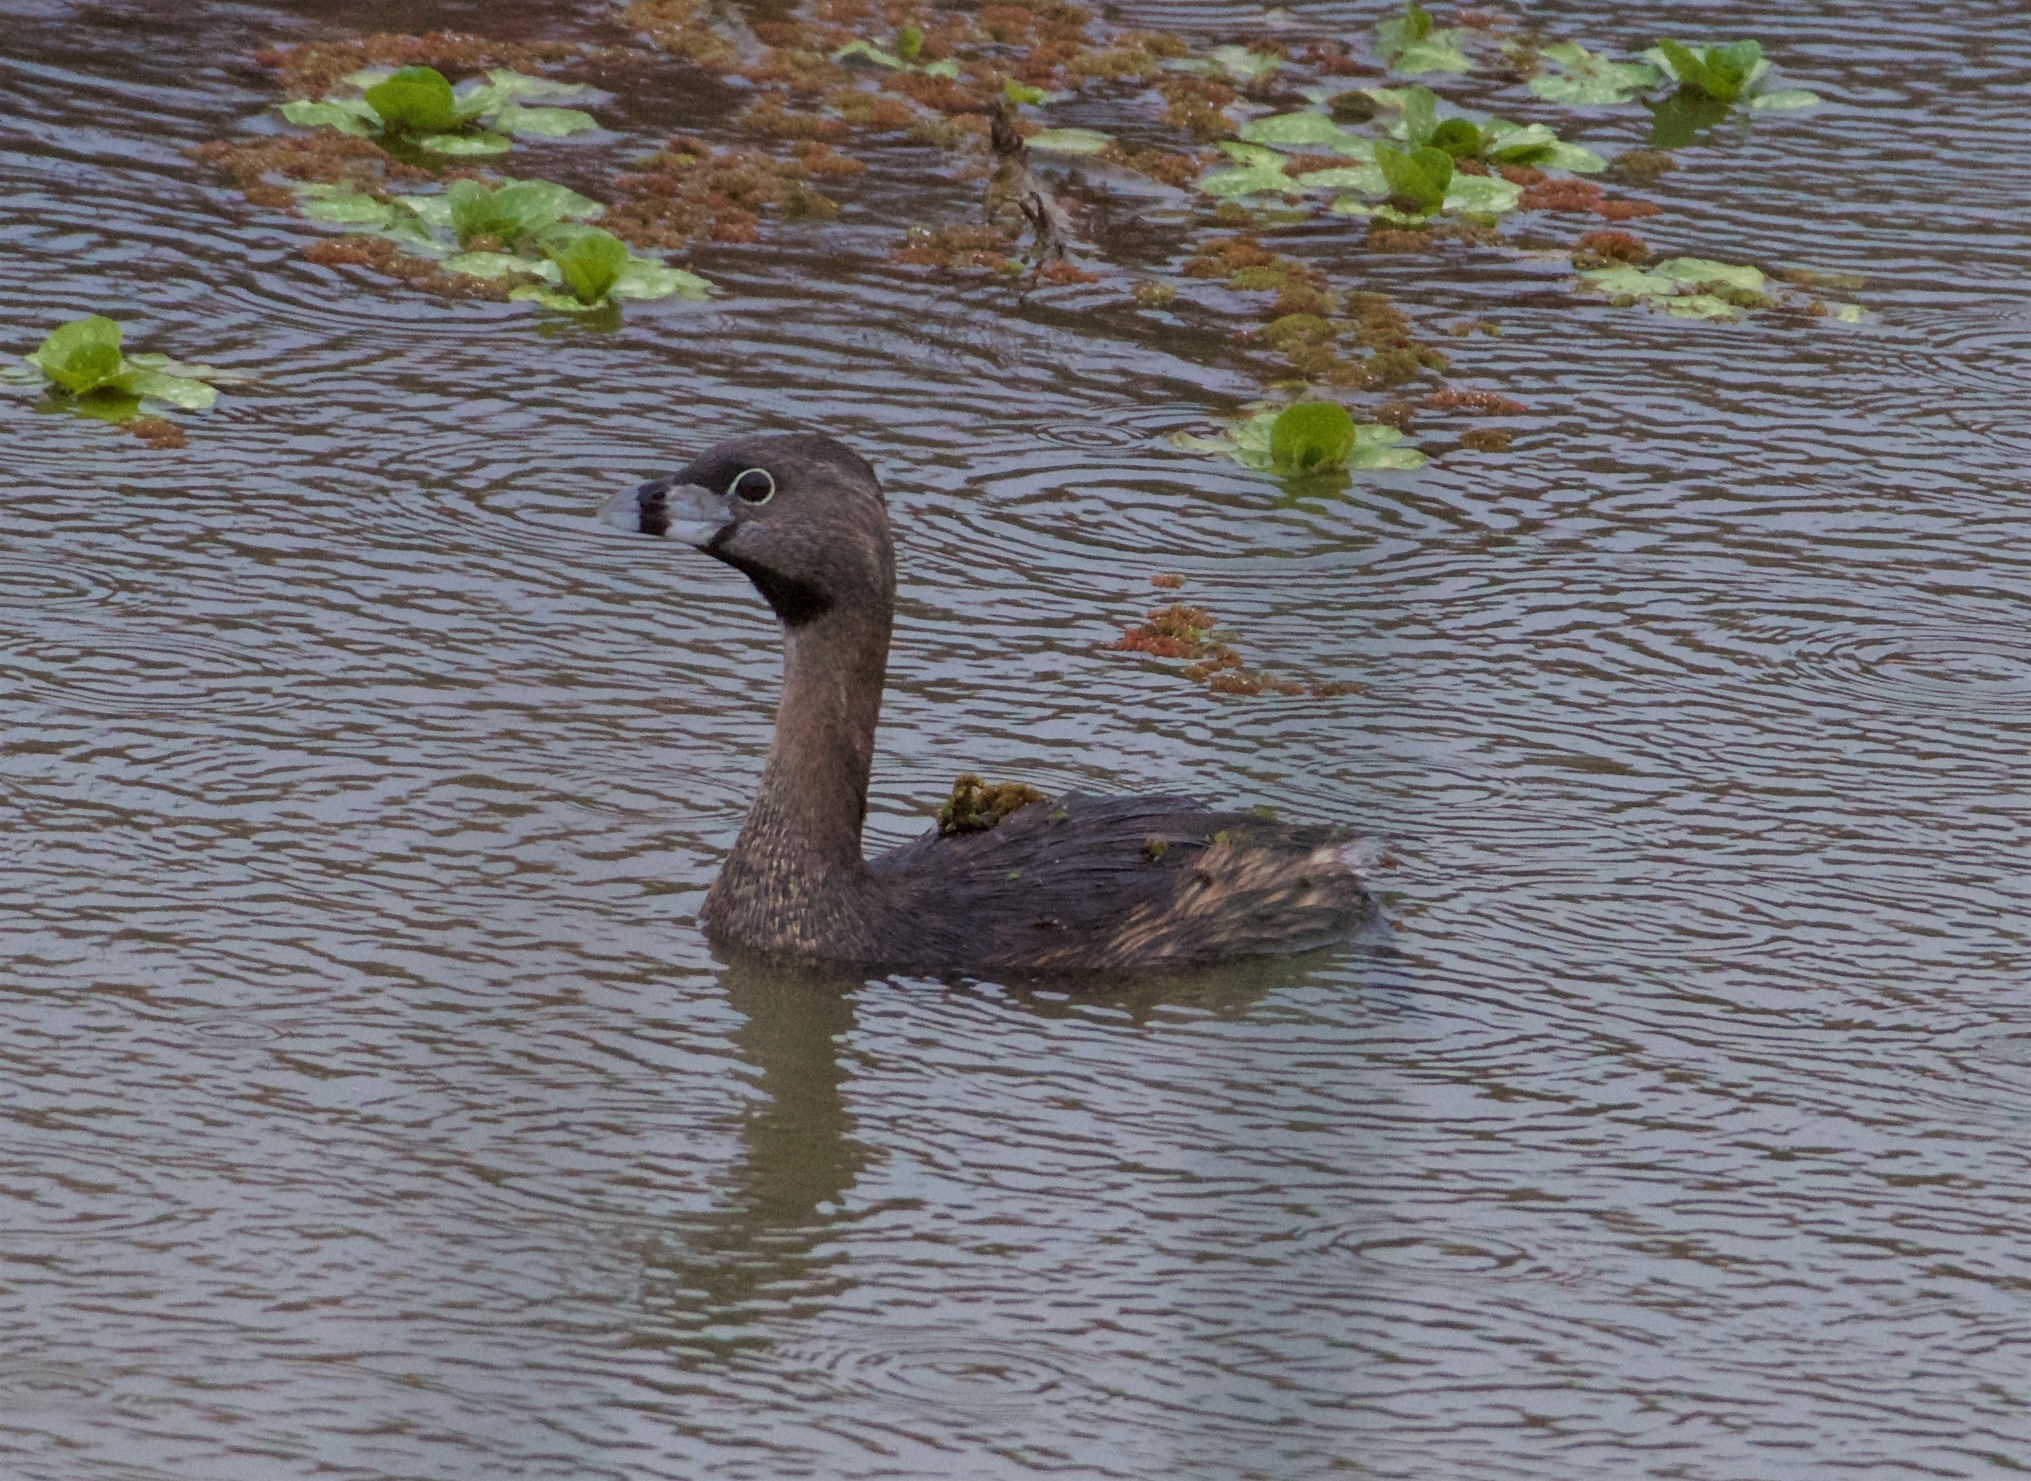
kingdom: Animalia
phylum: Chordata
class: Aves
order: Podicipediformes
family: Podicipedidae
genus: Podilymbus
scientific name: Podilymbus podiceps
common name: Pied-billed grebe
